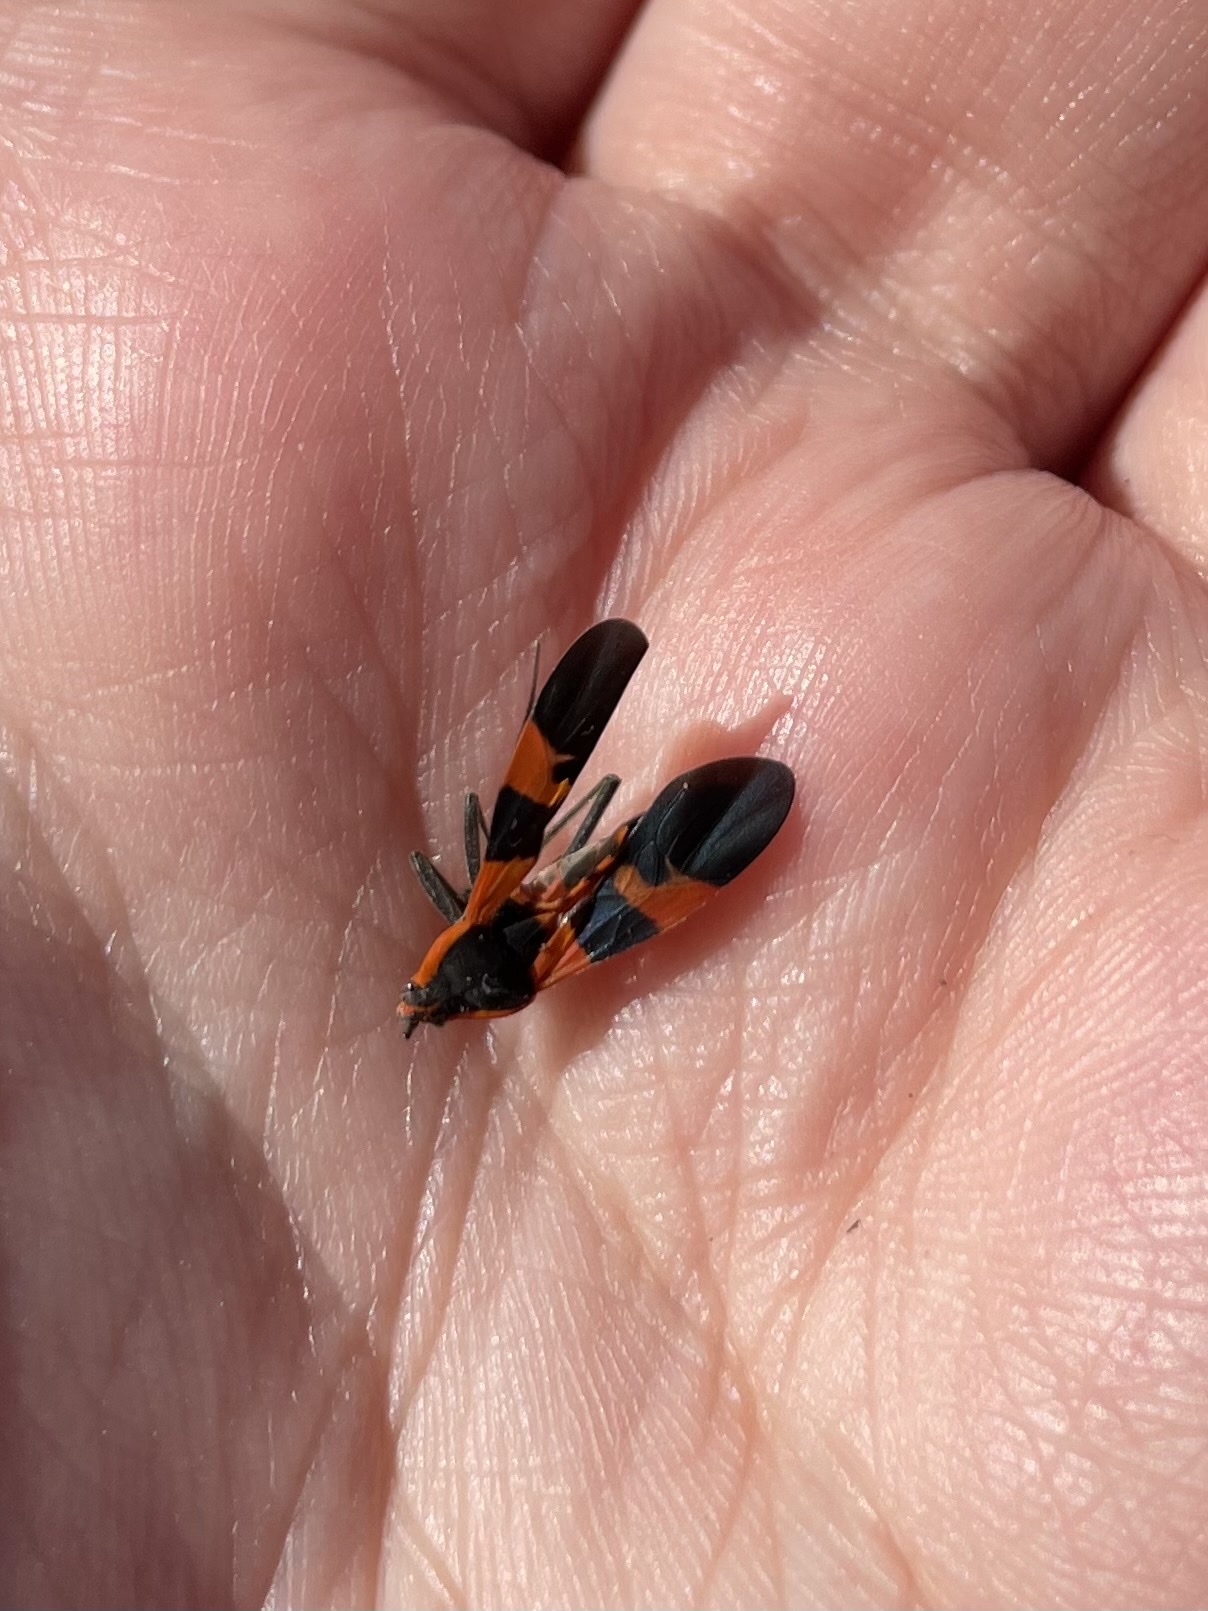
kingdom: Animalia
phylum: Arthropoda
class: Insecta
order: Hemiptera
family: Lygaeidae
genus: Oncopeltus
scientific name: Oncopeltus fasciatus
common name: Large milkweed bug
